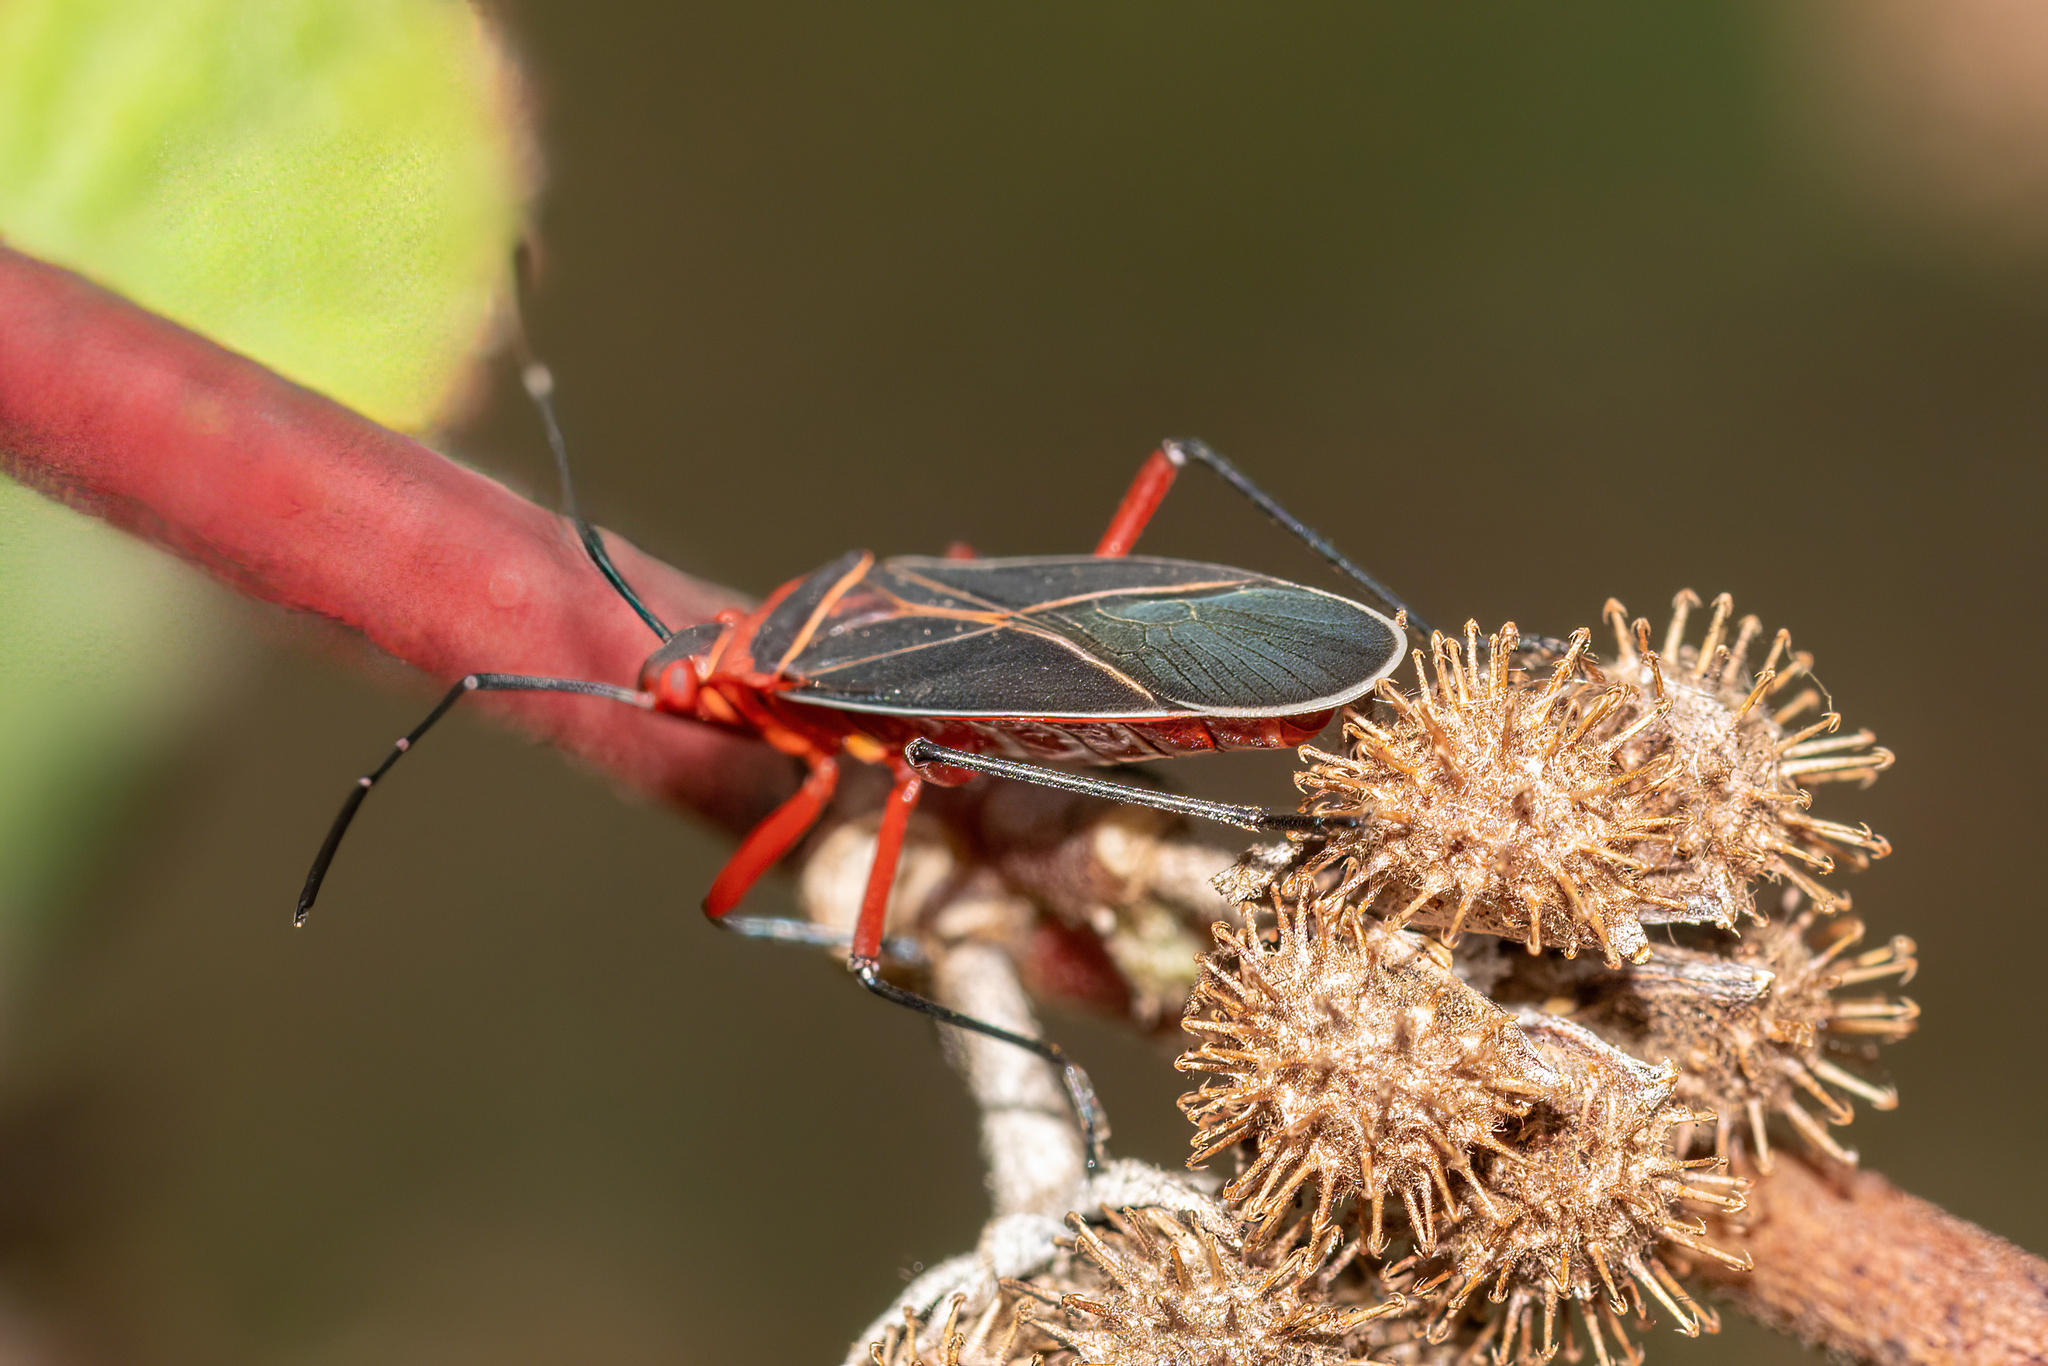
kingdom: Animalia
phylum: Arthropoda
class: Insecta
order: Hemiptera
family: Pyrrhocoridae
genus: Dysdercus
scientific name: Dysdercus suturellus
